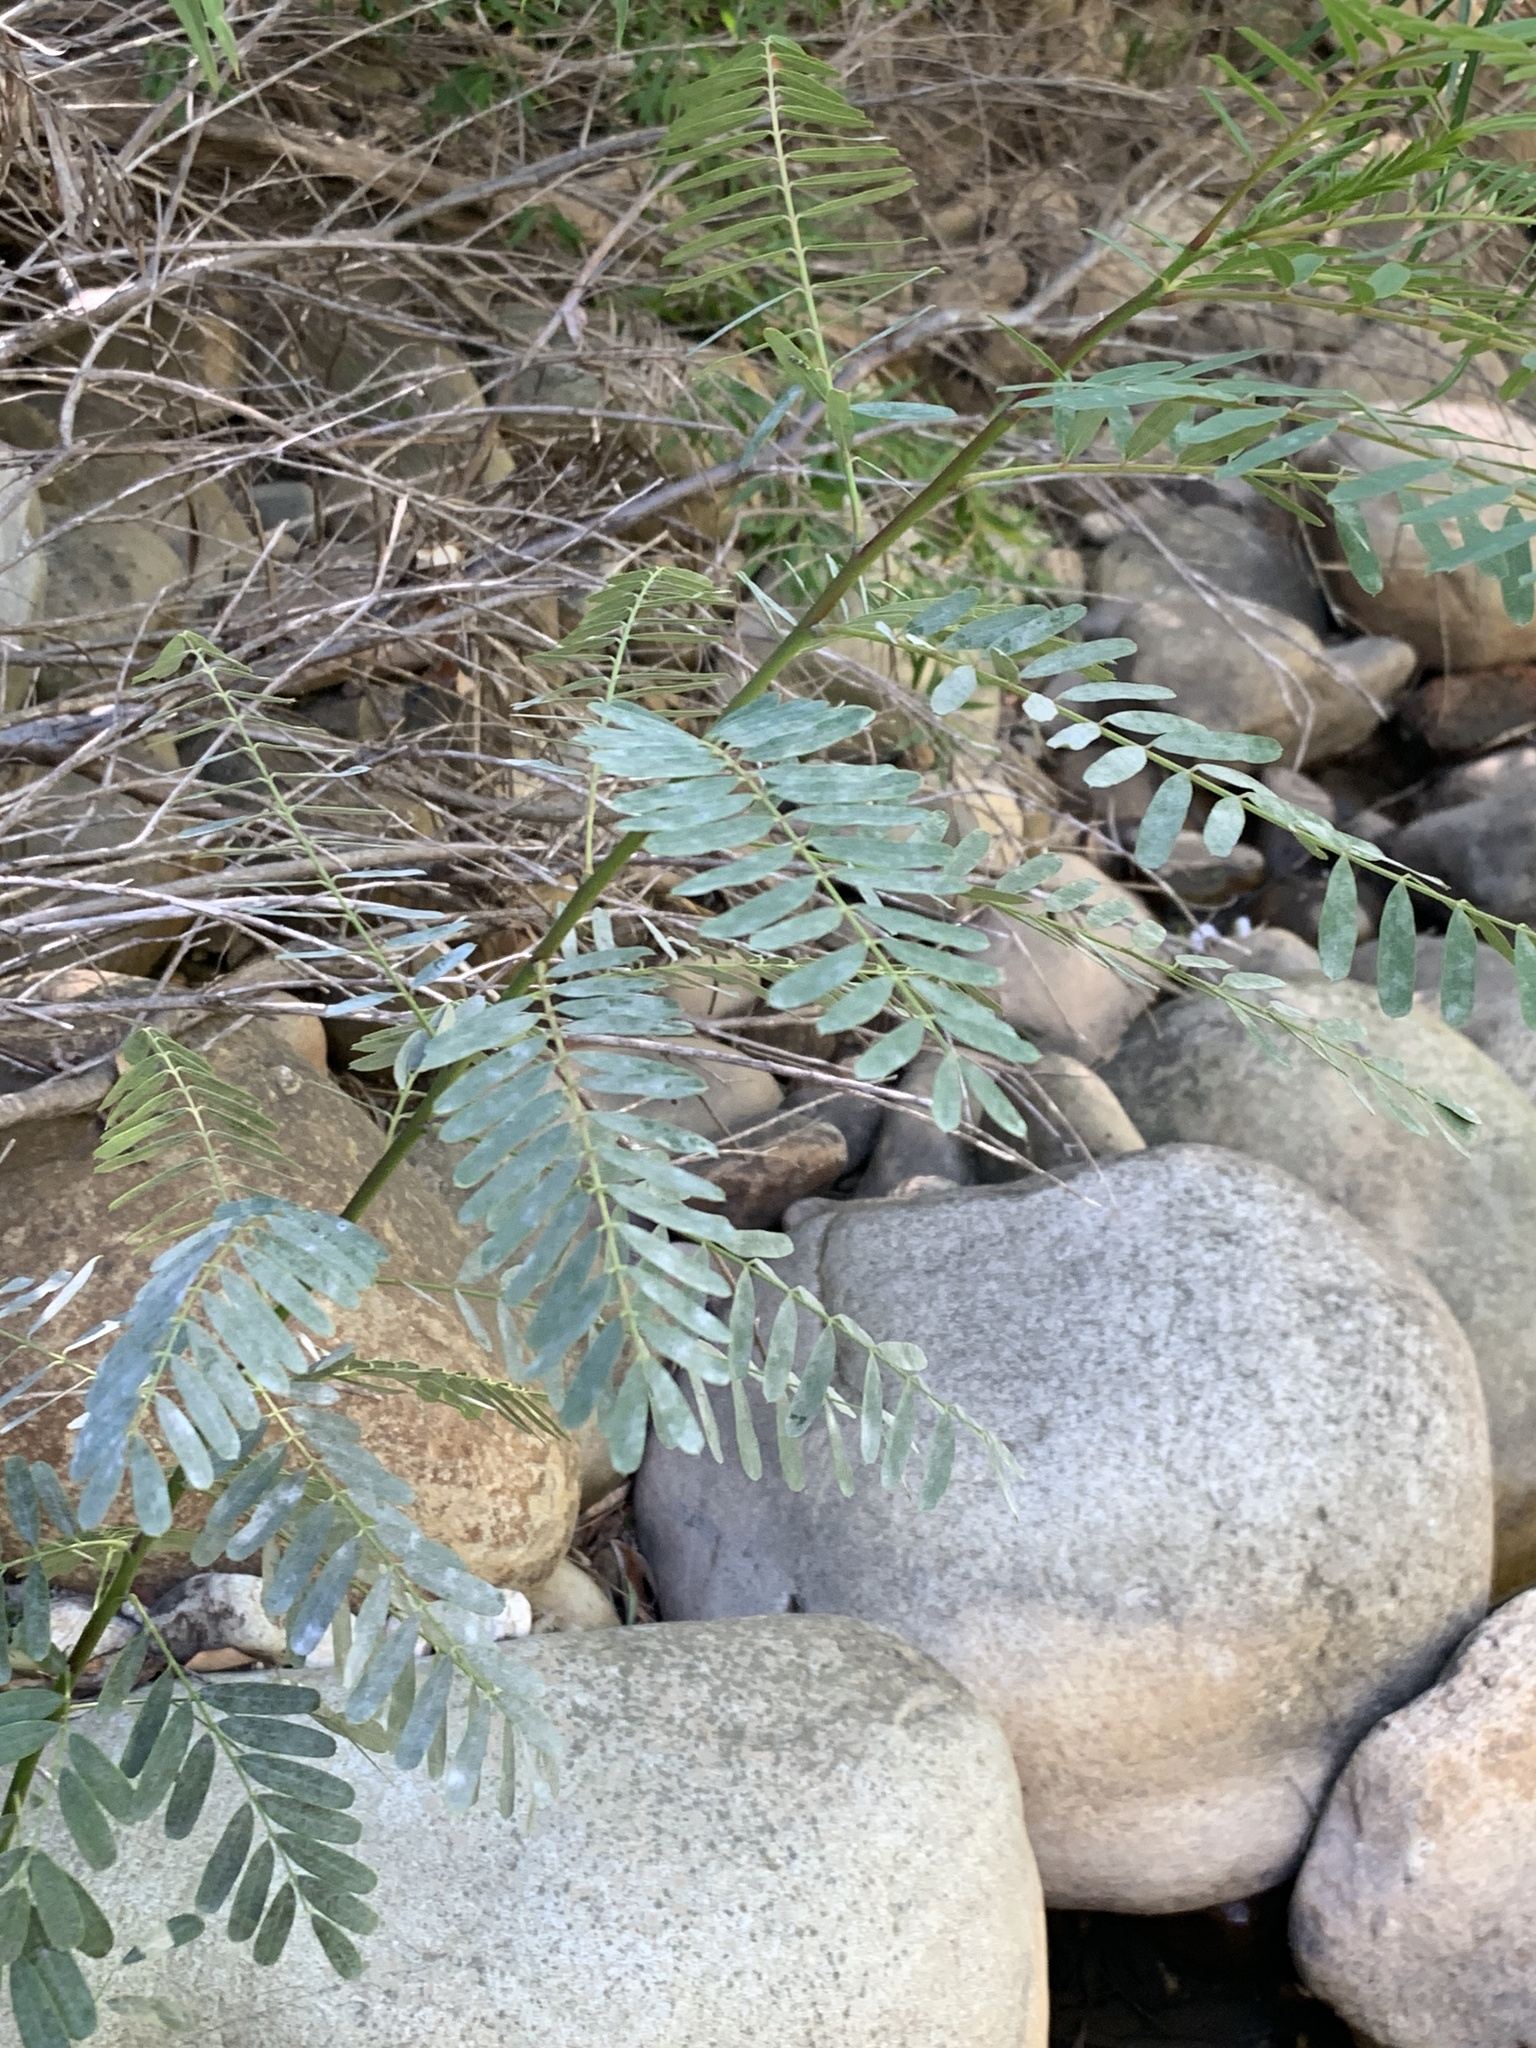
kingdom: Plantae
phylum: Tracheophyta
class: Magnoliopsida
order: Fabales
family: Fabaceae
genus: Sesbania
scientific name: Sesbania punicea
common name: Rattlebox
